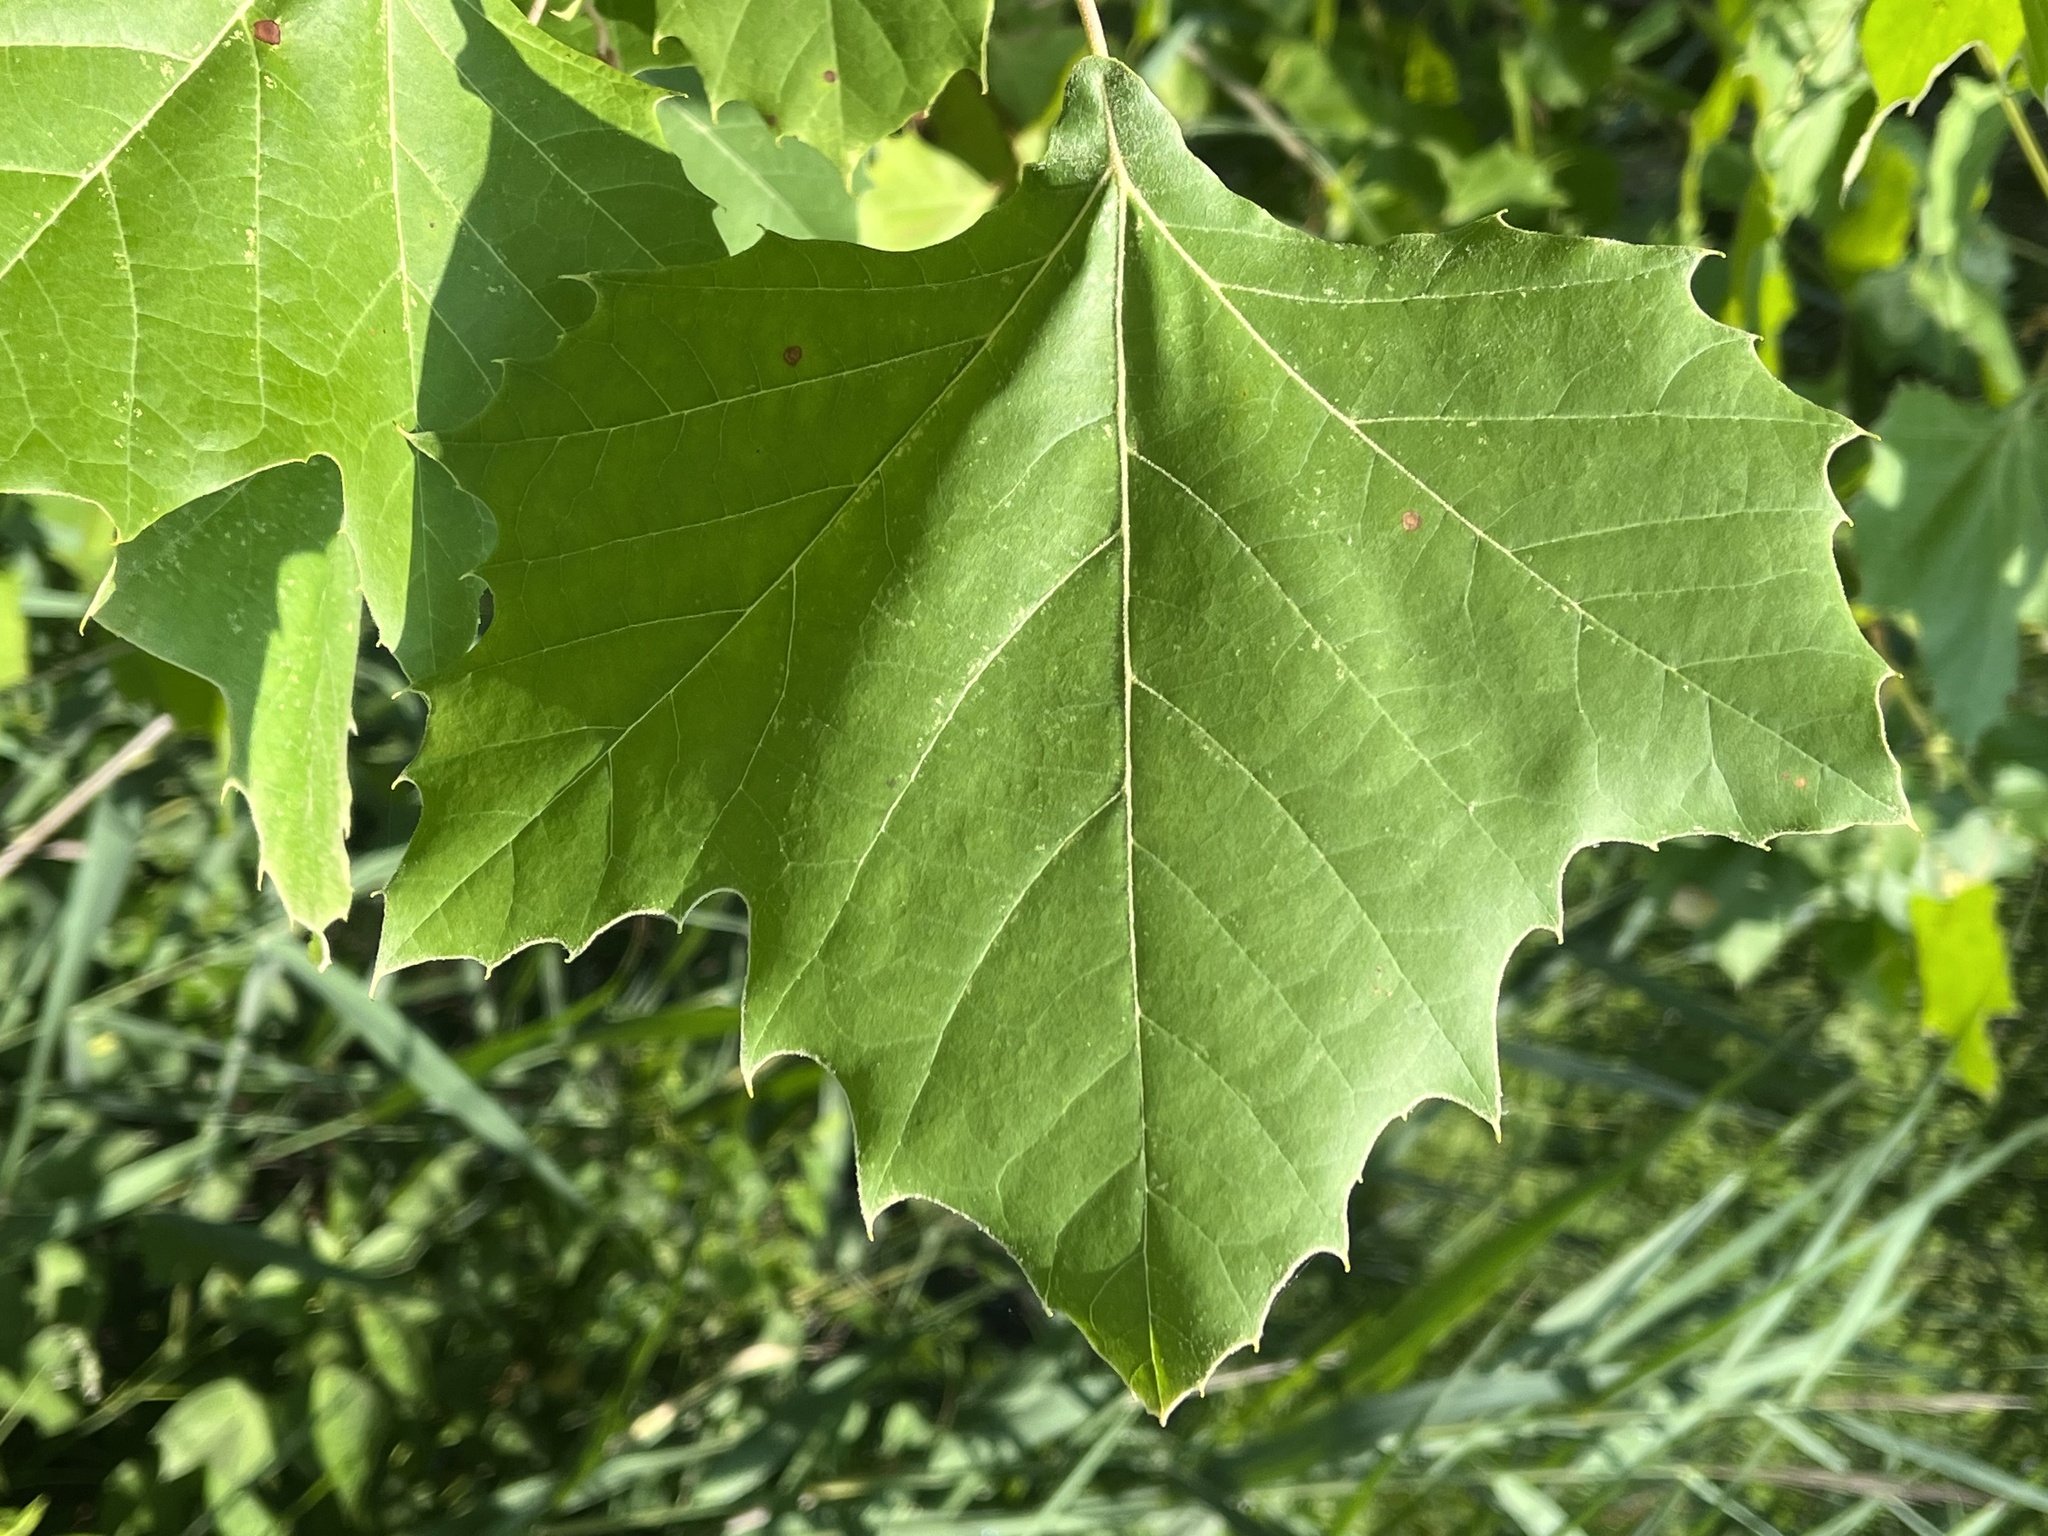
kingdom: Plantae
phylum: Tracheophyta
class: Magnoliopsida
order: Proteales
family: Platanaceae
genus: Platanus
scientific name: Platanus occidentalis
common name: American sycamore
